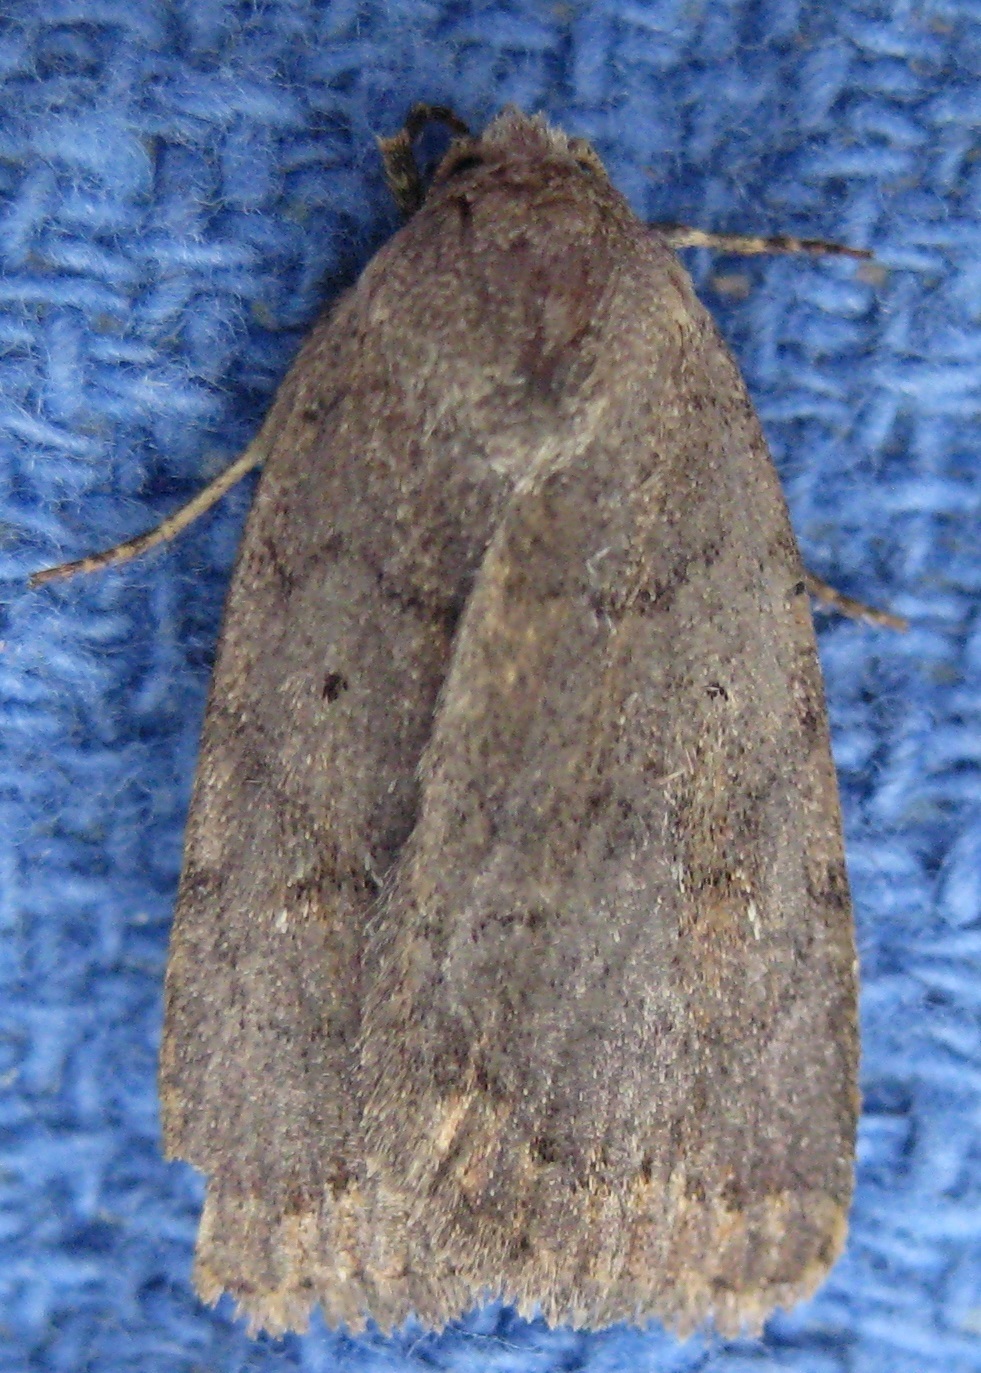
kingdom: Animalia
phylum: Arthropoda
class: Insecta
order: Lepidoptera
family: Noctuidae
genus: Athetis
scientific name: Athetis tarda
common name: Slowpoke moth
